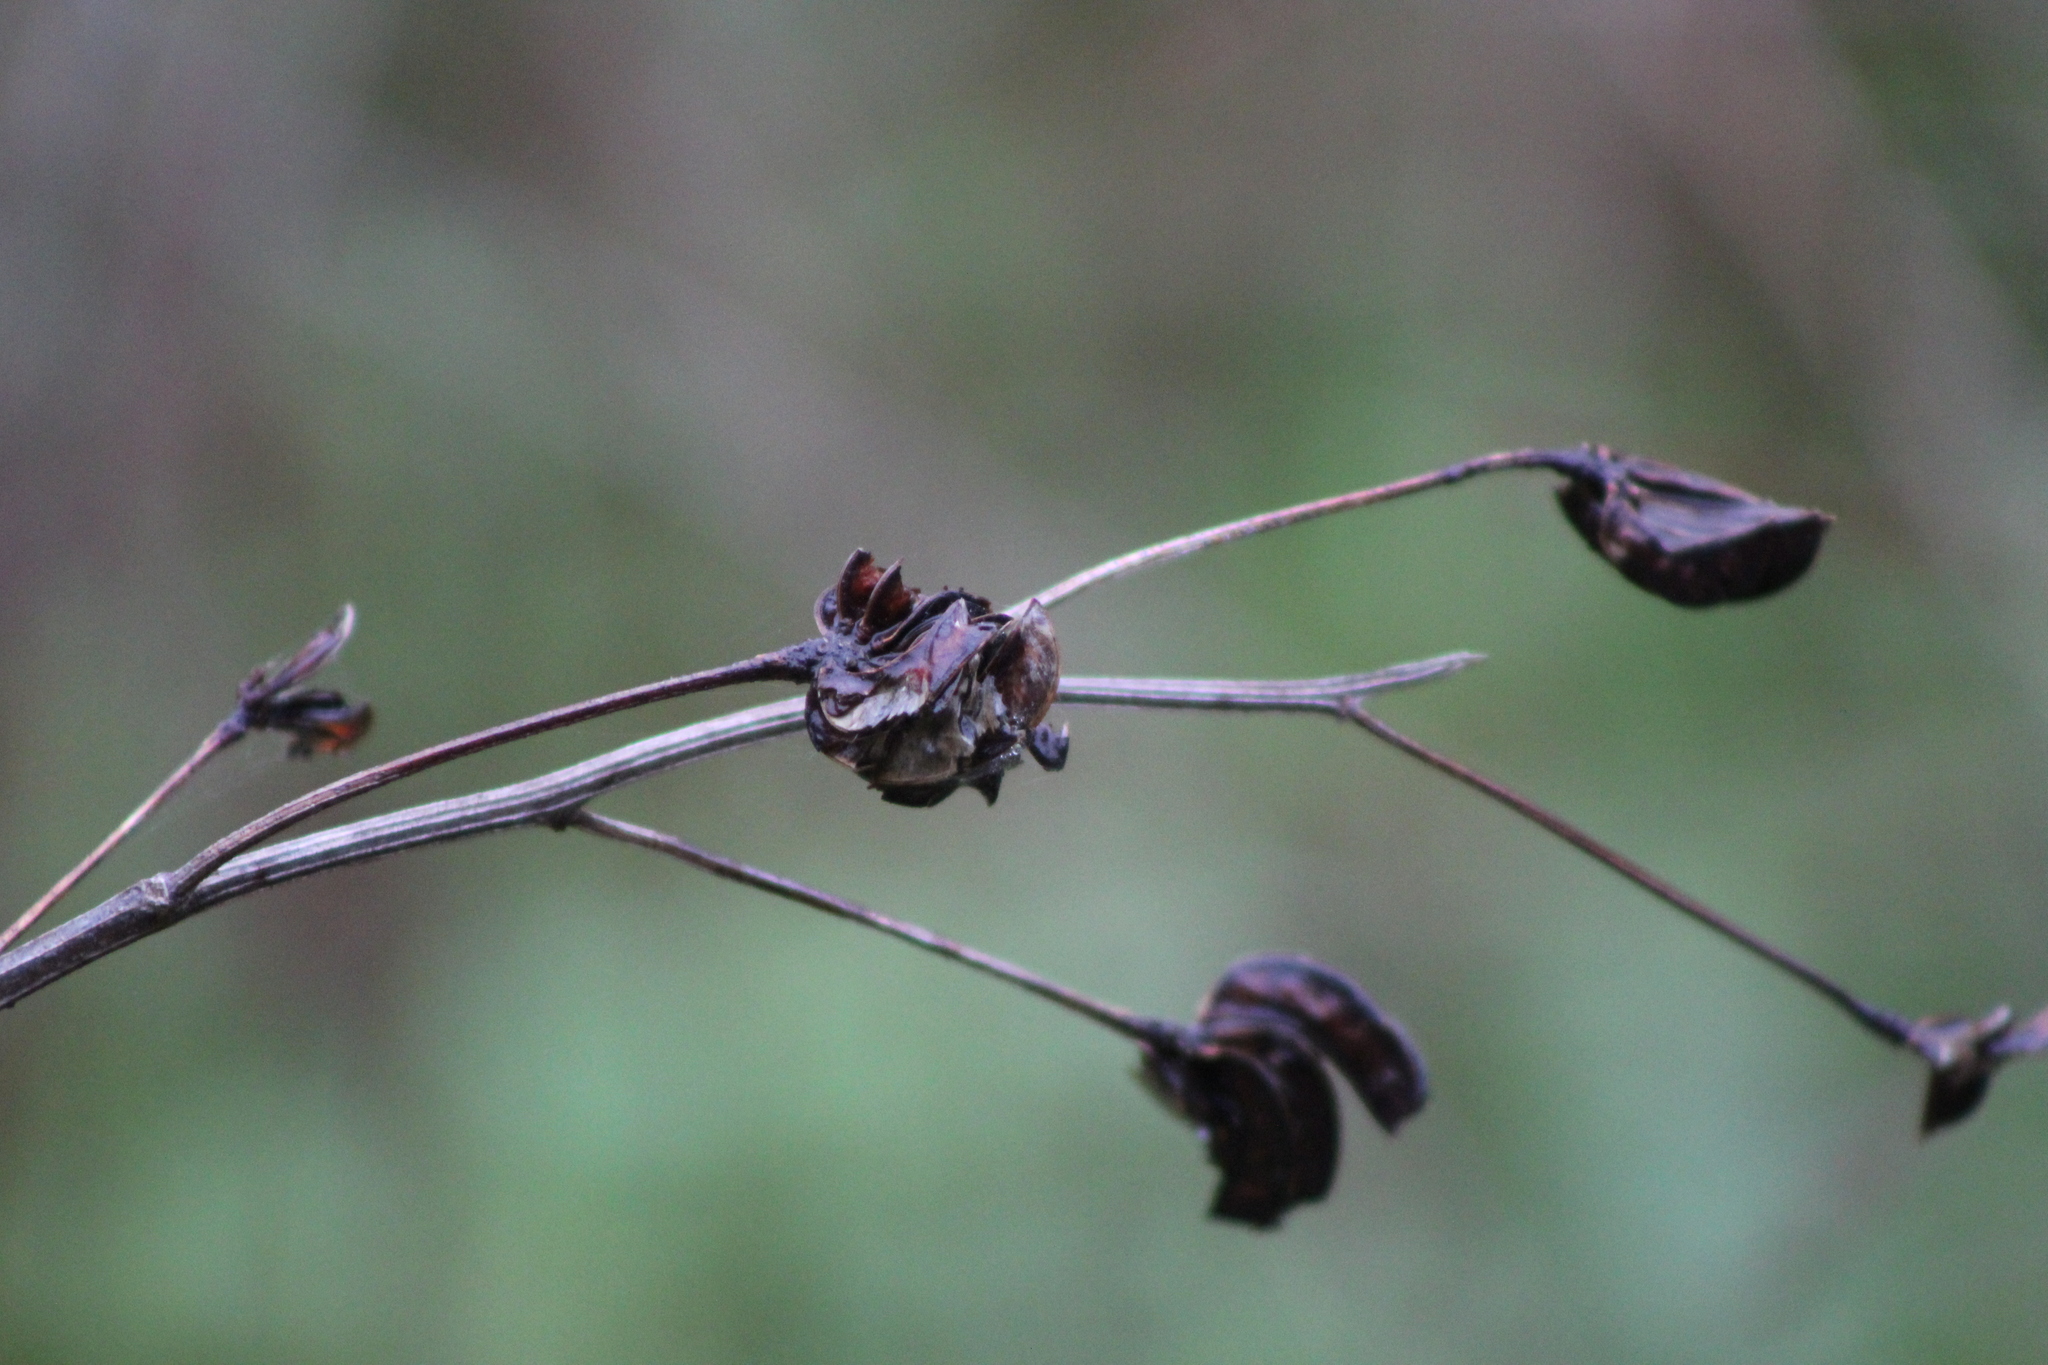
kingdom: Plantae
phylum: Tracheophyta
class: Magnoliopsida
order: Fabales
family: Fabaceae
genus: Desmanthus
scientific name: Desmanthus illinoensis
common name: Illinois bundle-flower
